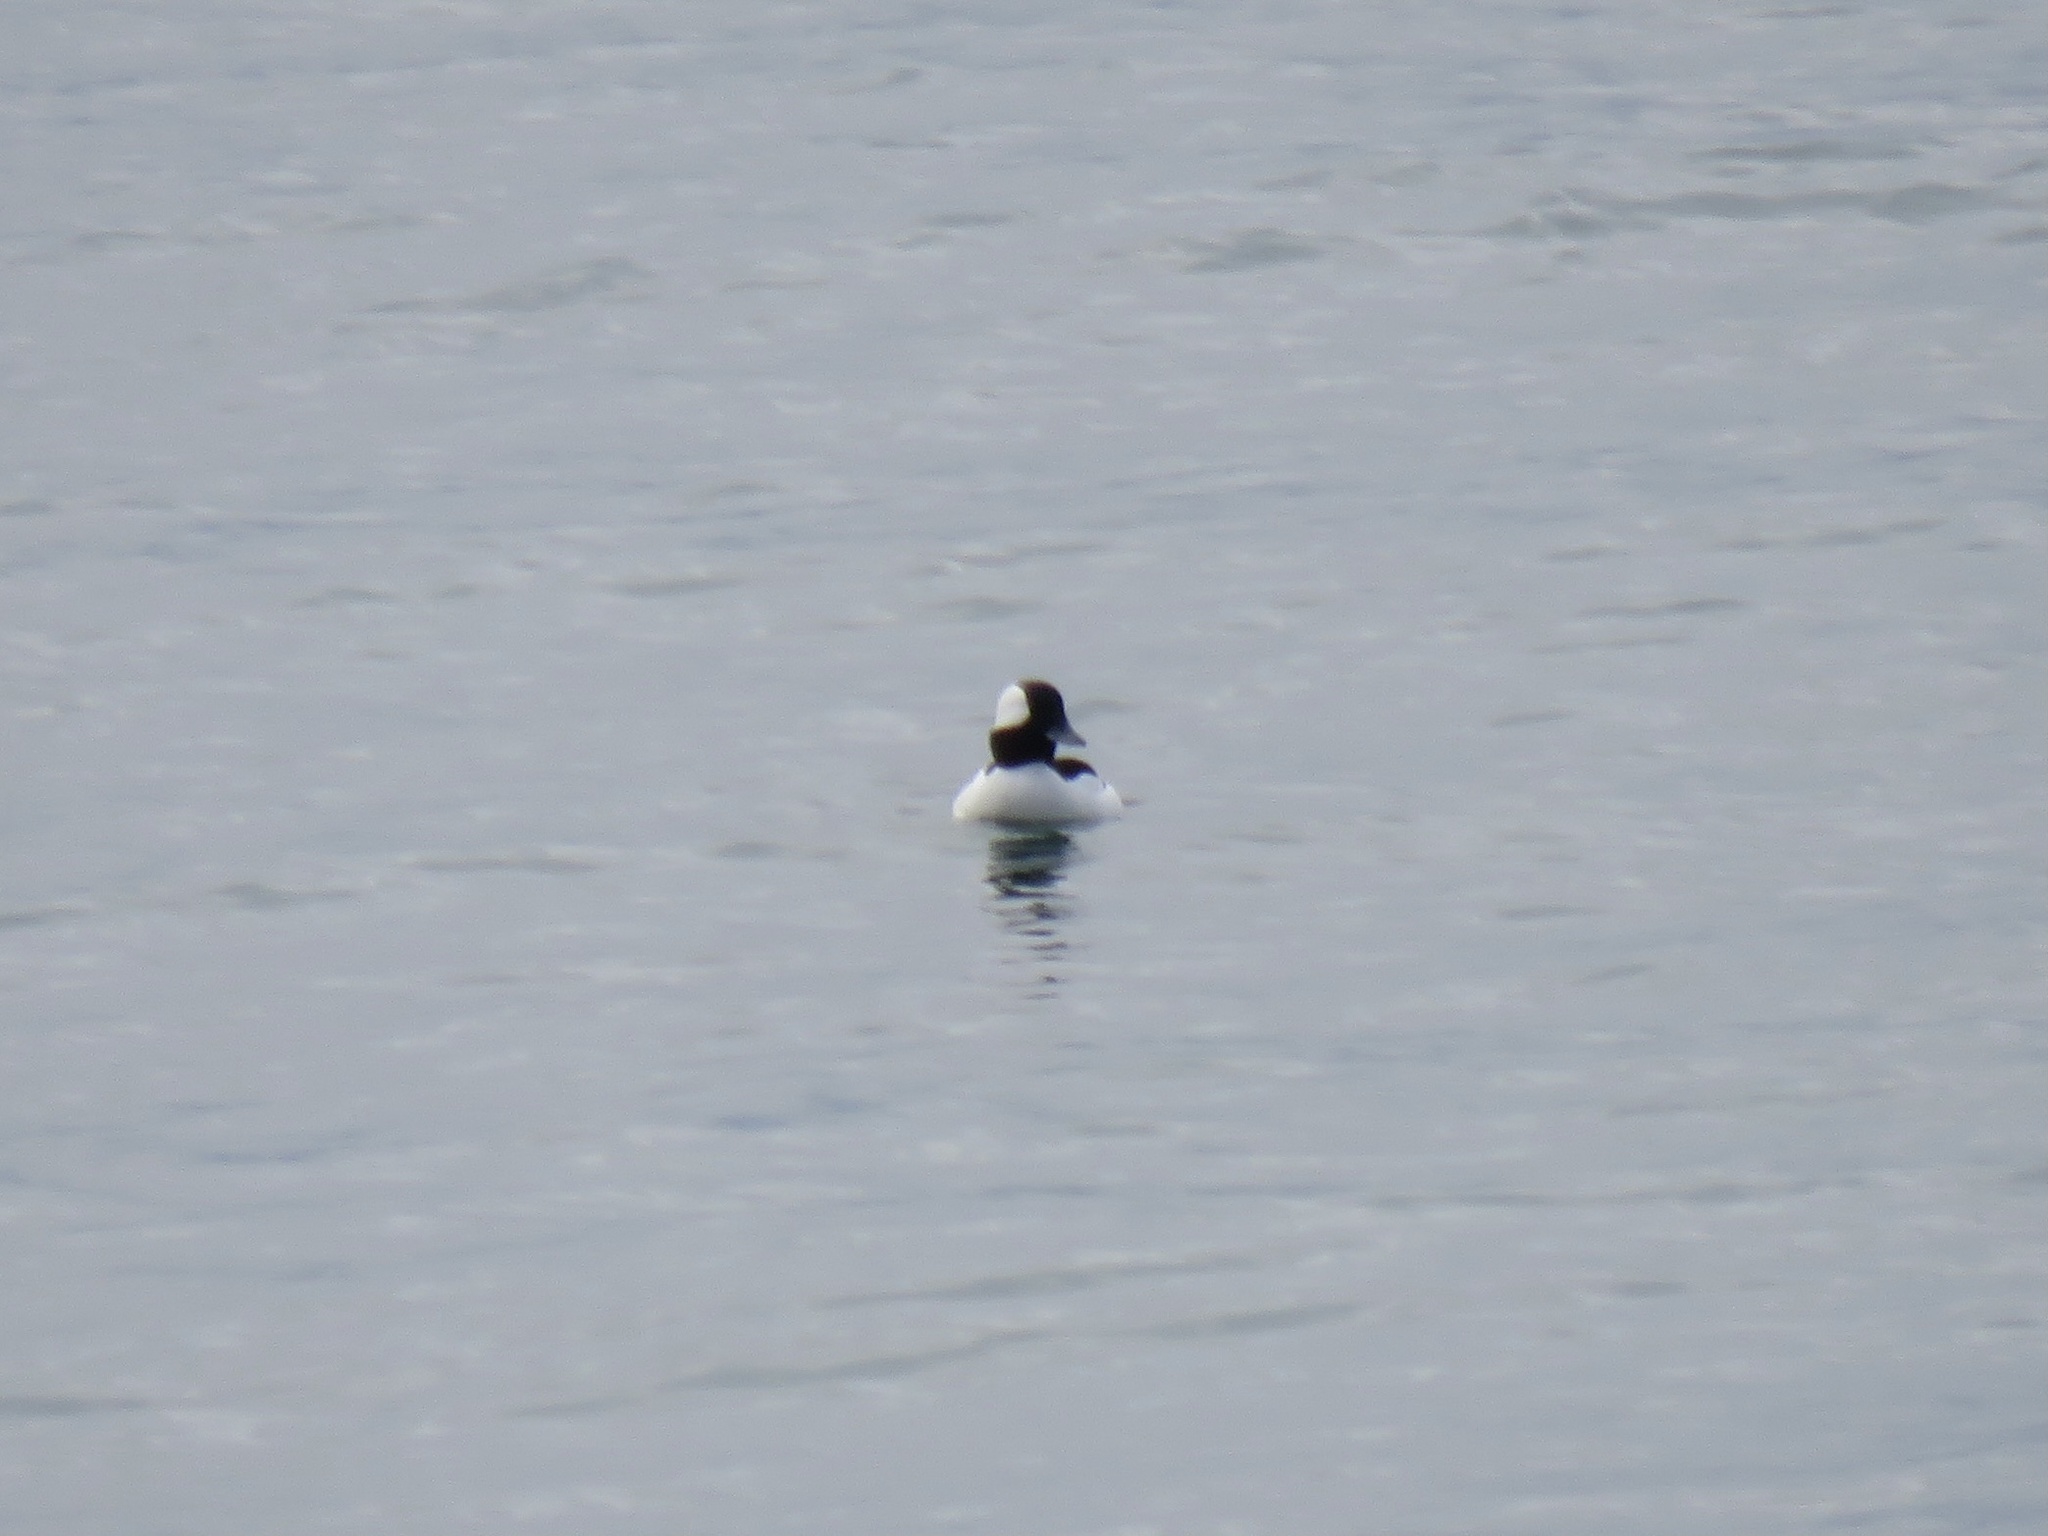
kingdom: Animalia
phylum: Chordata
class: Aves
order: Anseriformes
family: Anatidae
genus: Bucephala
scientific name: Bucephala albeola
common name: Bufflehead
